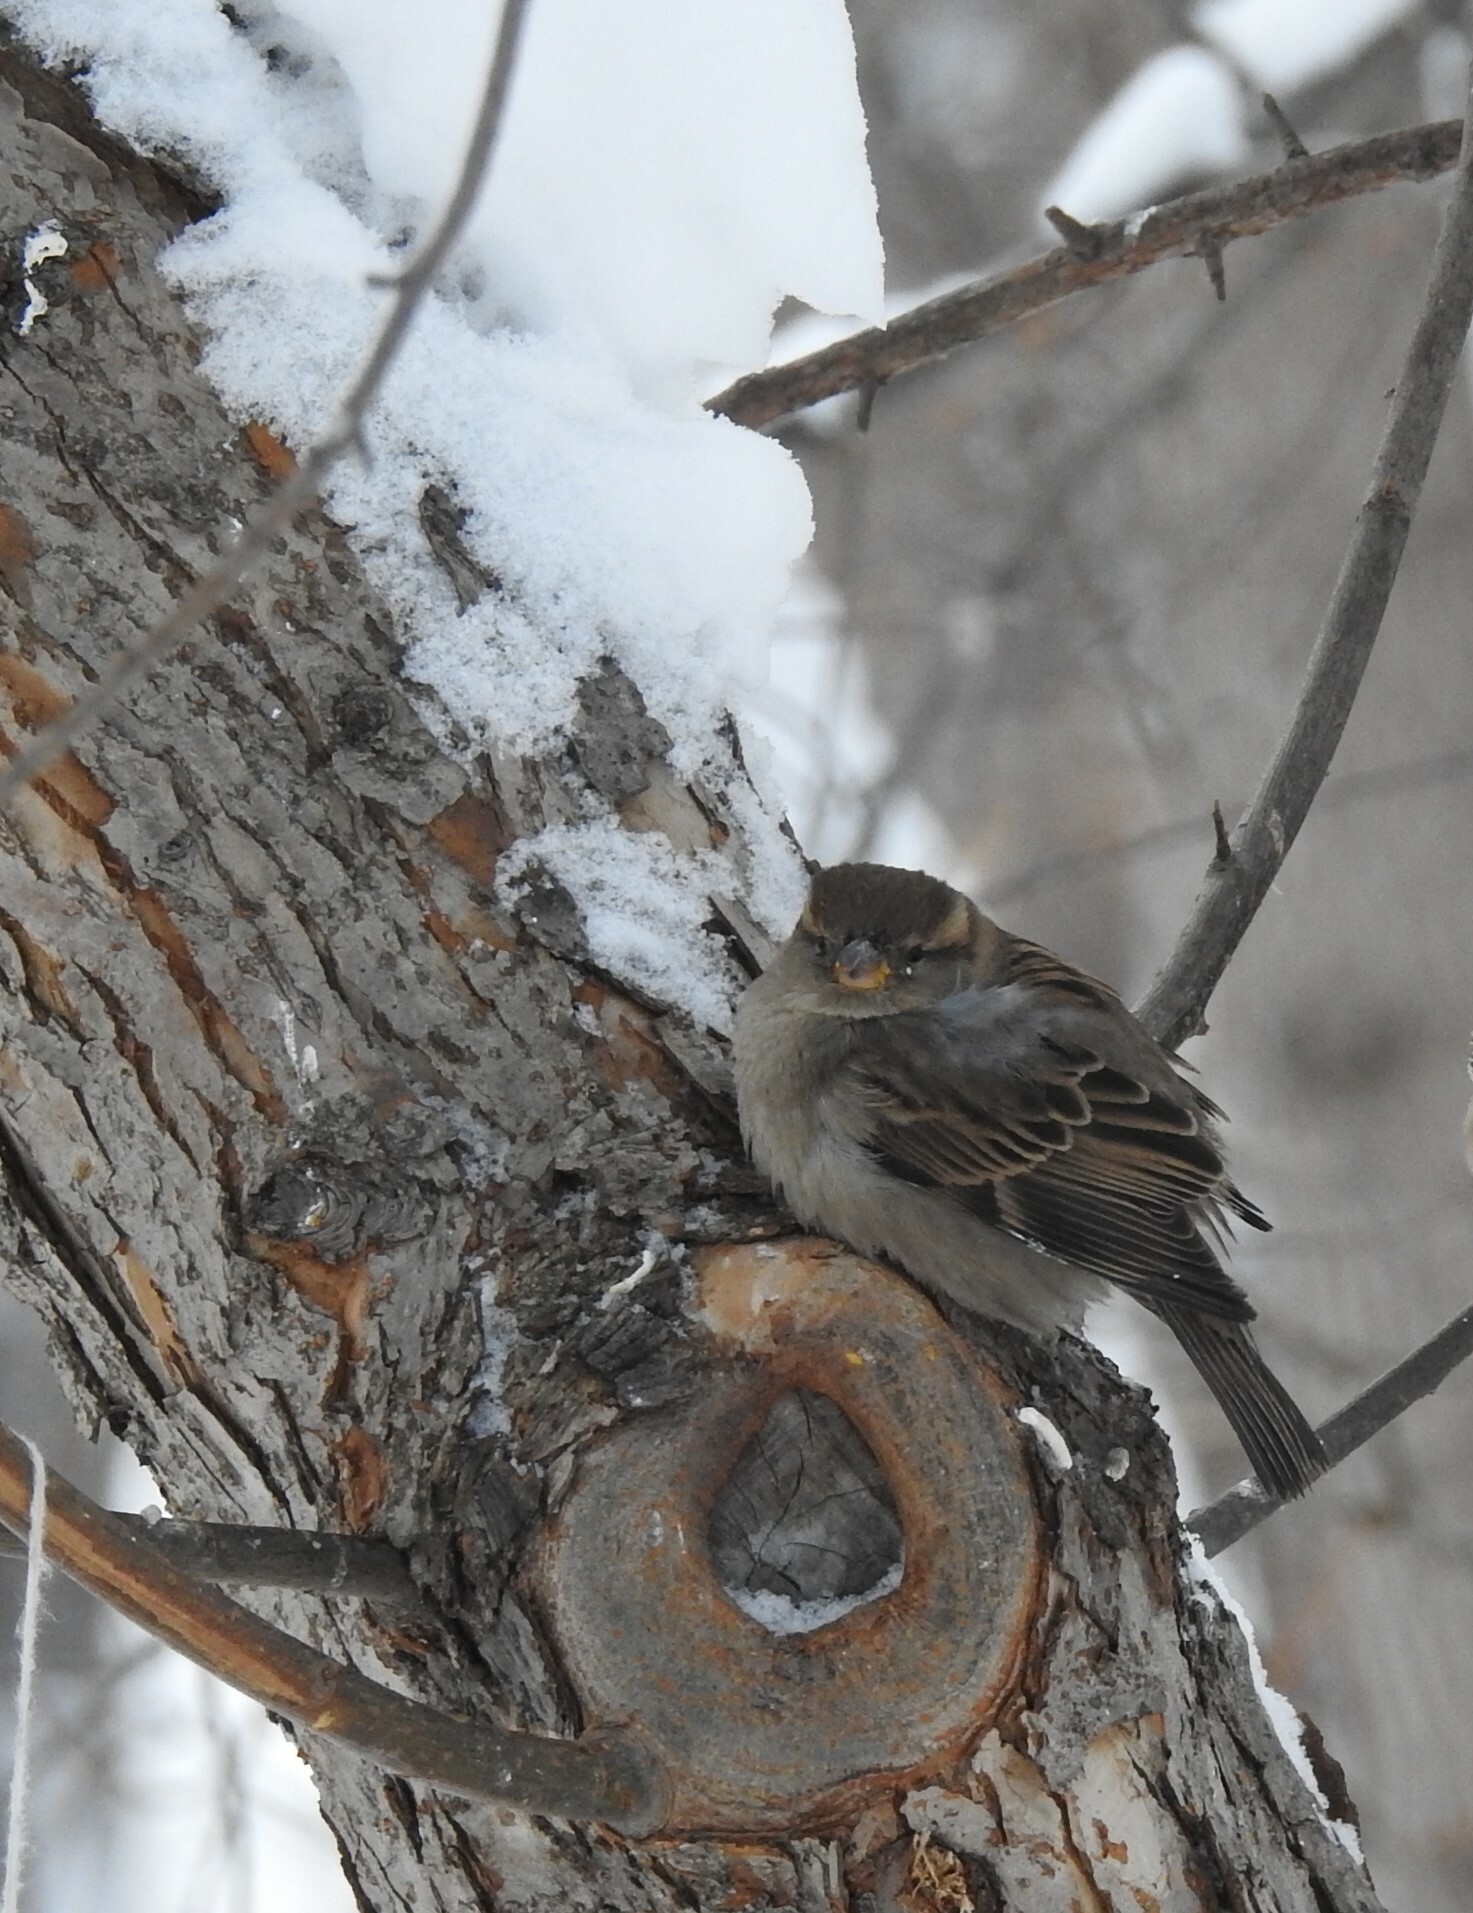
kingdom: Animalia
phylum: Chordata
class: Aves
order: Passeriformes
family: Passeridae
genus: Passer
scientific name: Passer domesticus
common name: House sparrow
